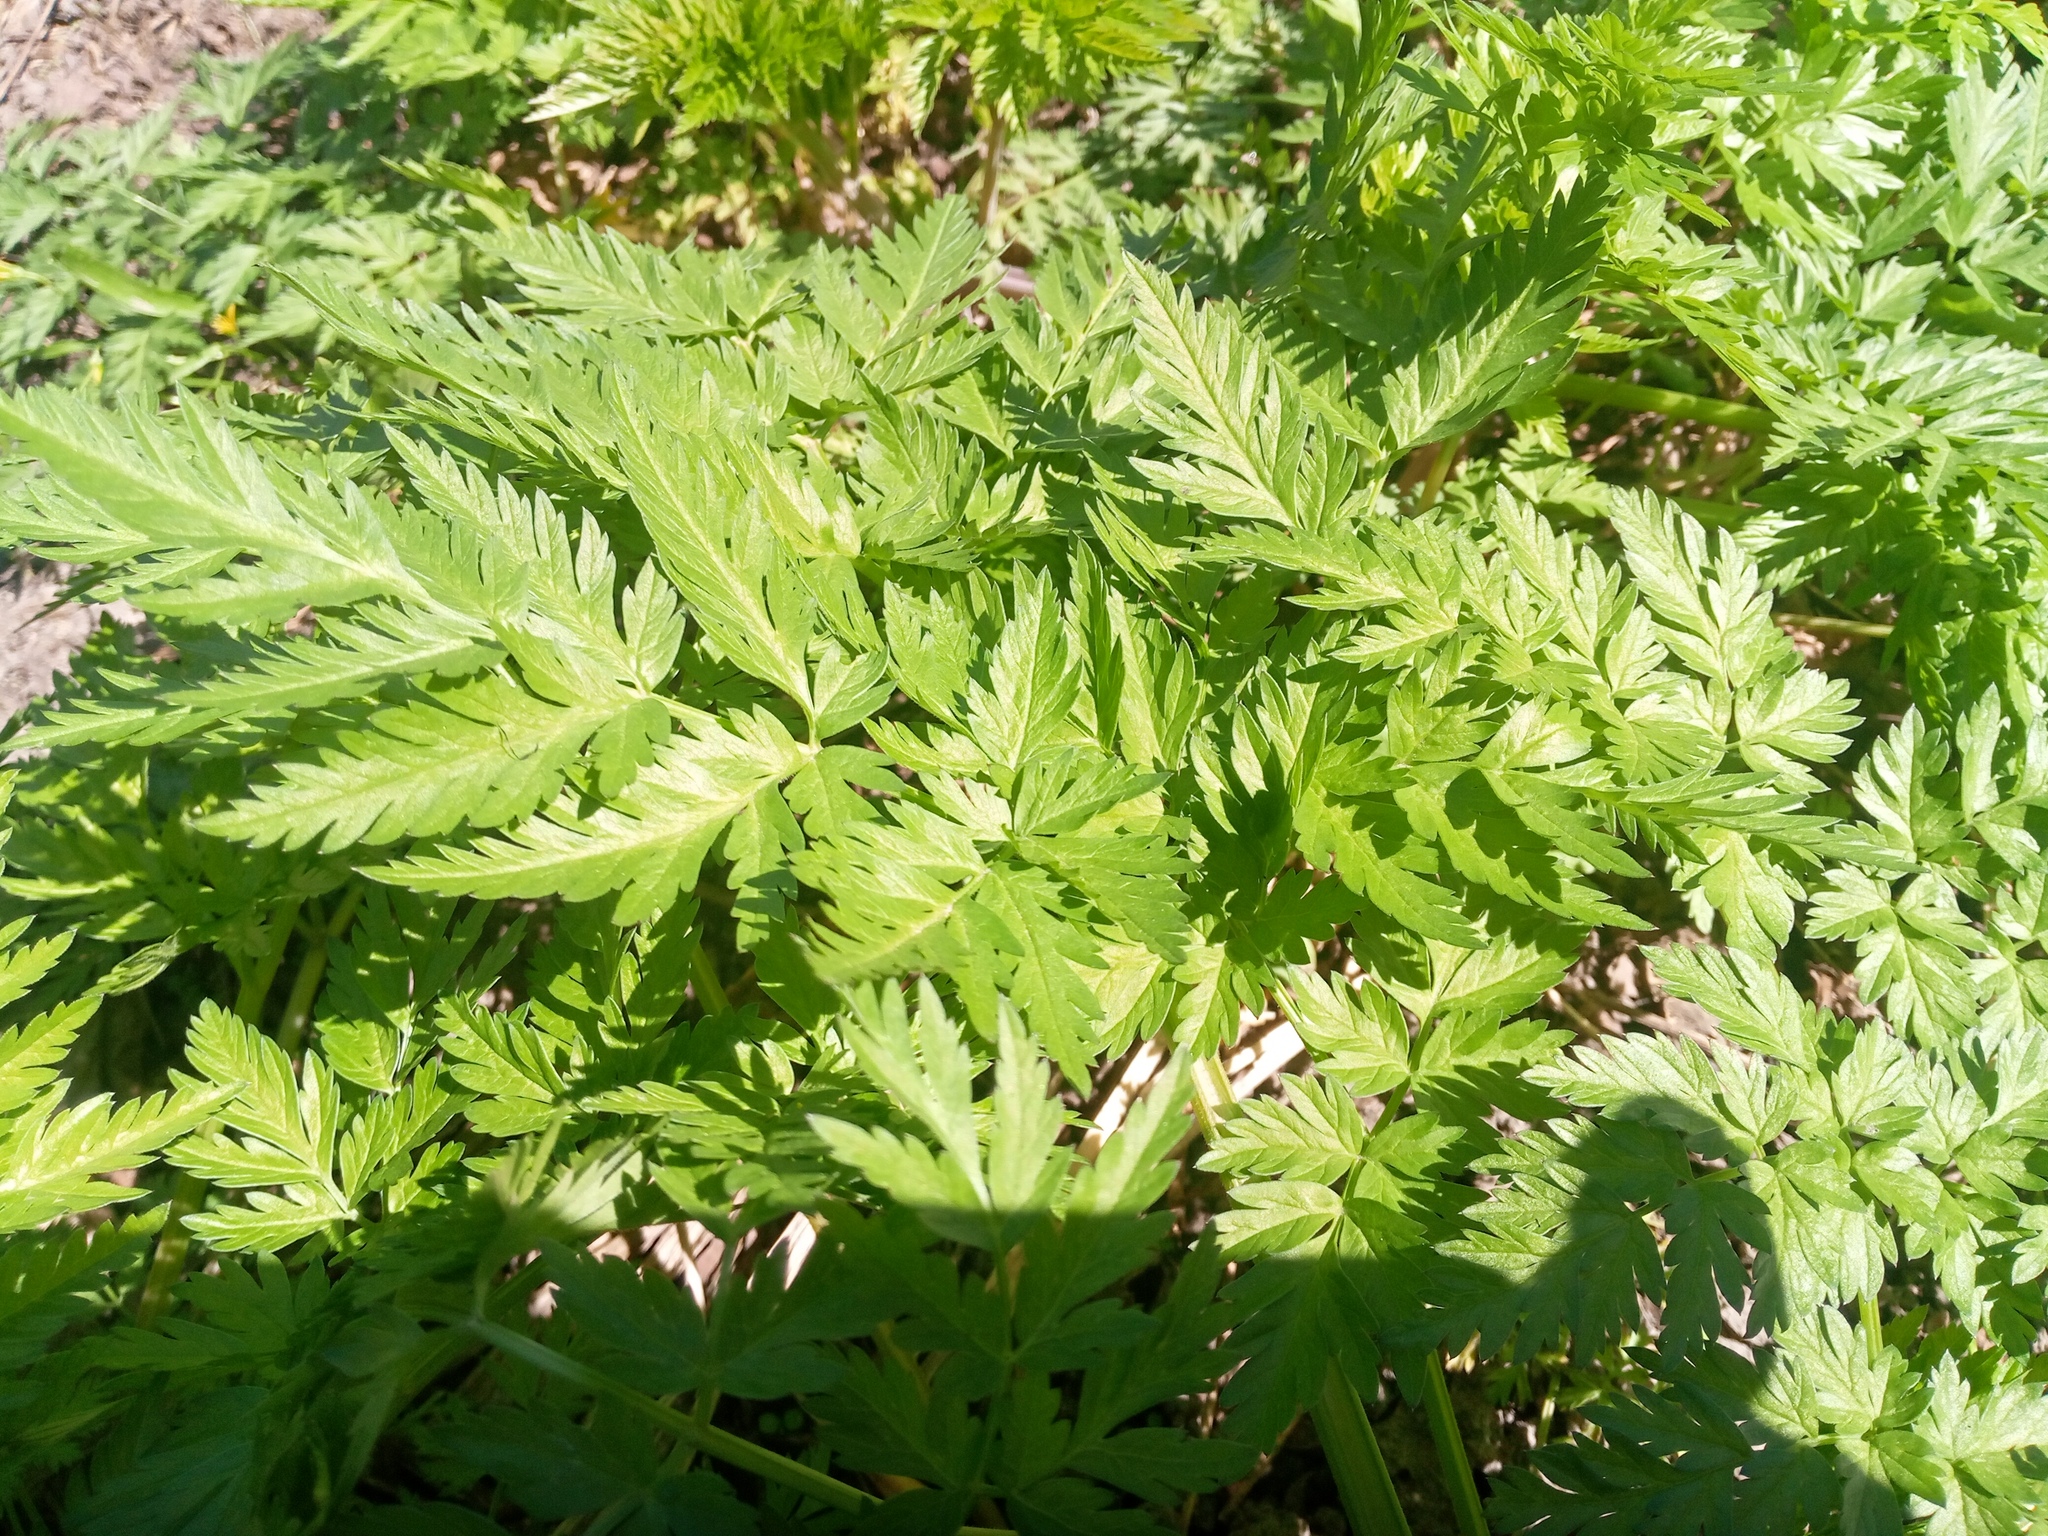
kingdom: Plantae
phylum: Tracheophyta
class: Magnoliopsida
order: Apiales
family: Apiaceae
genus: Anthriscus
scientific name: Anthriscus sylvestris
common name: Cow parsley
